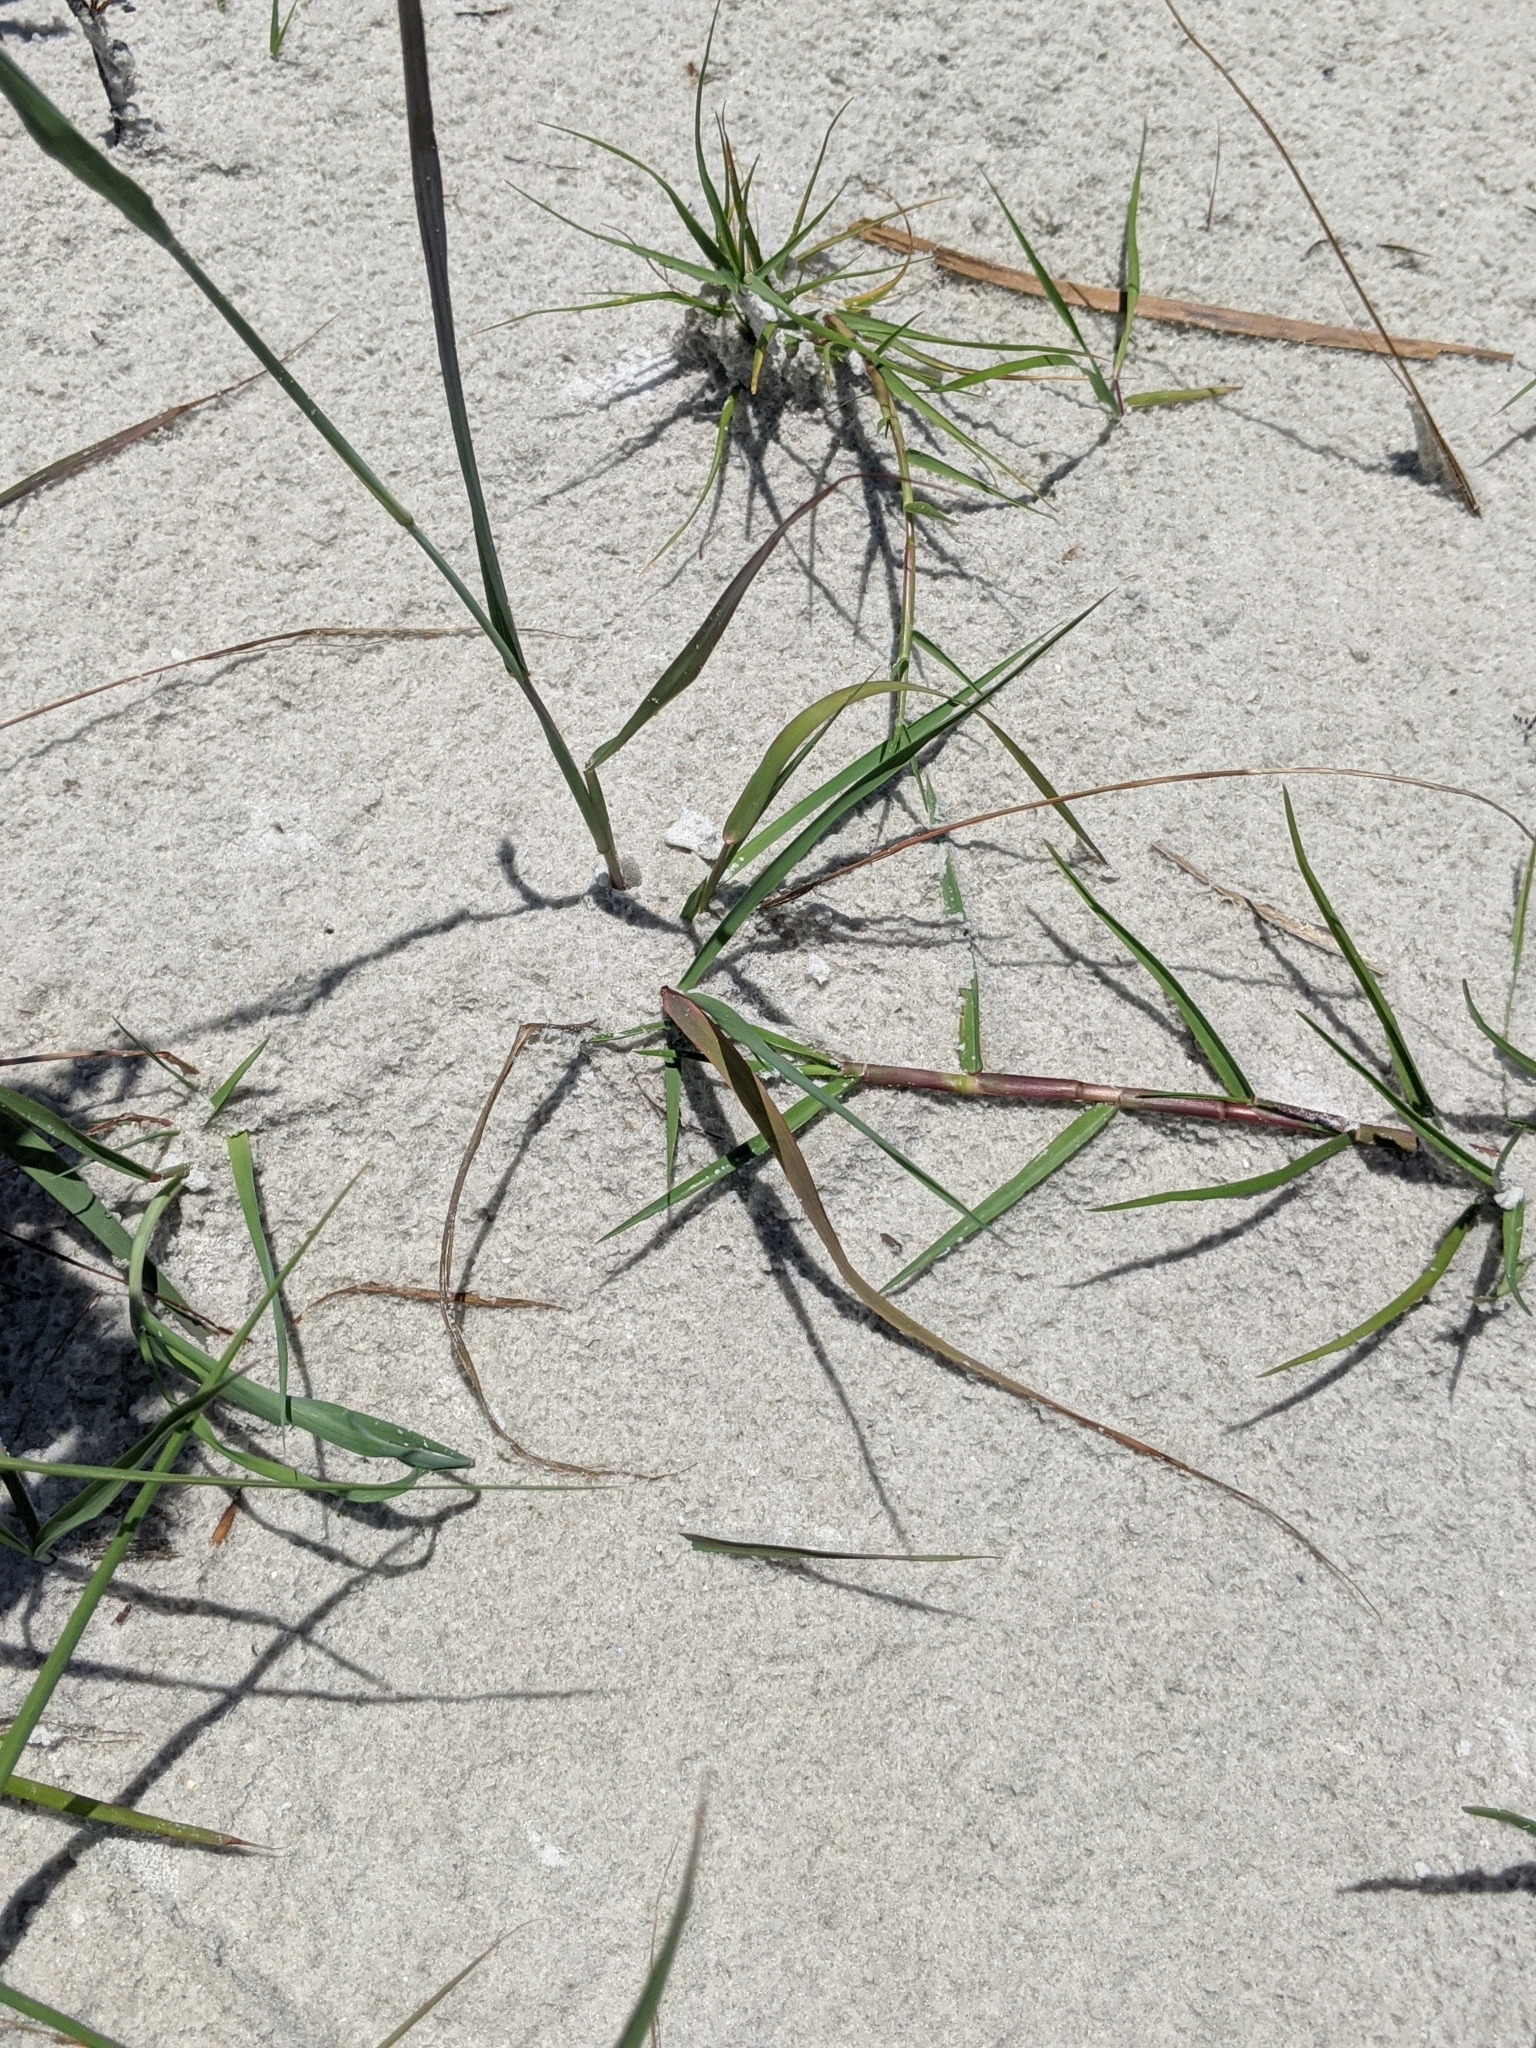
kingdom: Plantae
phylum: Tracheophyta
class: Liliopsida
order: Poales
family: Poaceae
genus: Eragrostis
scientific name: Eragrostis secundiflora
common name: Red love grass
